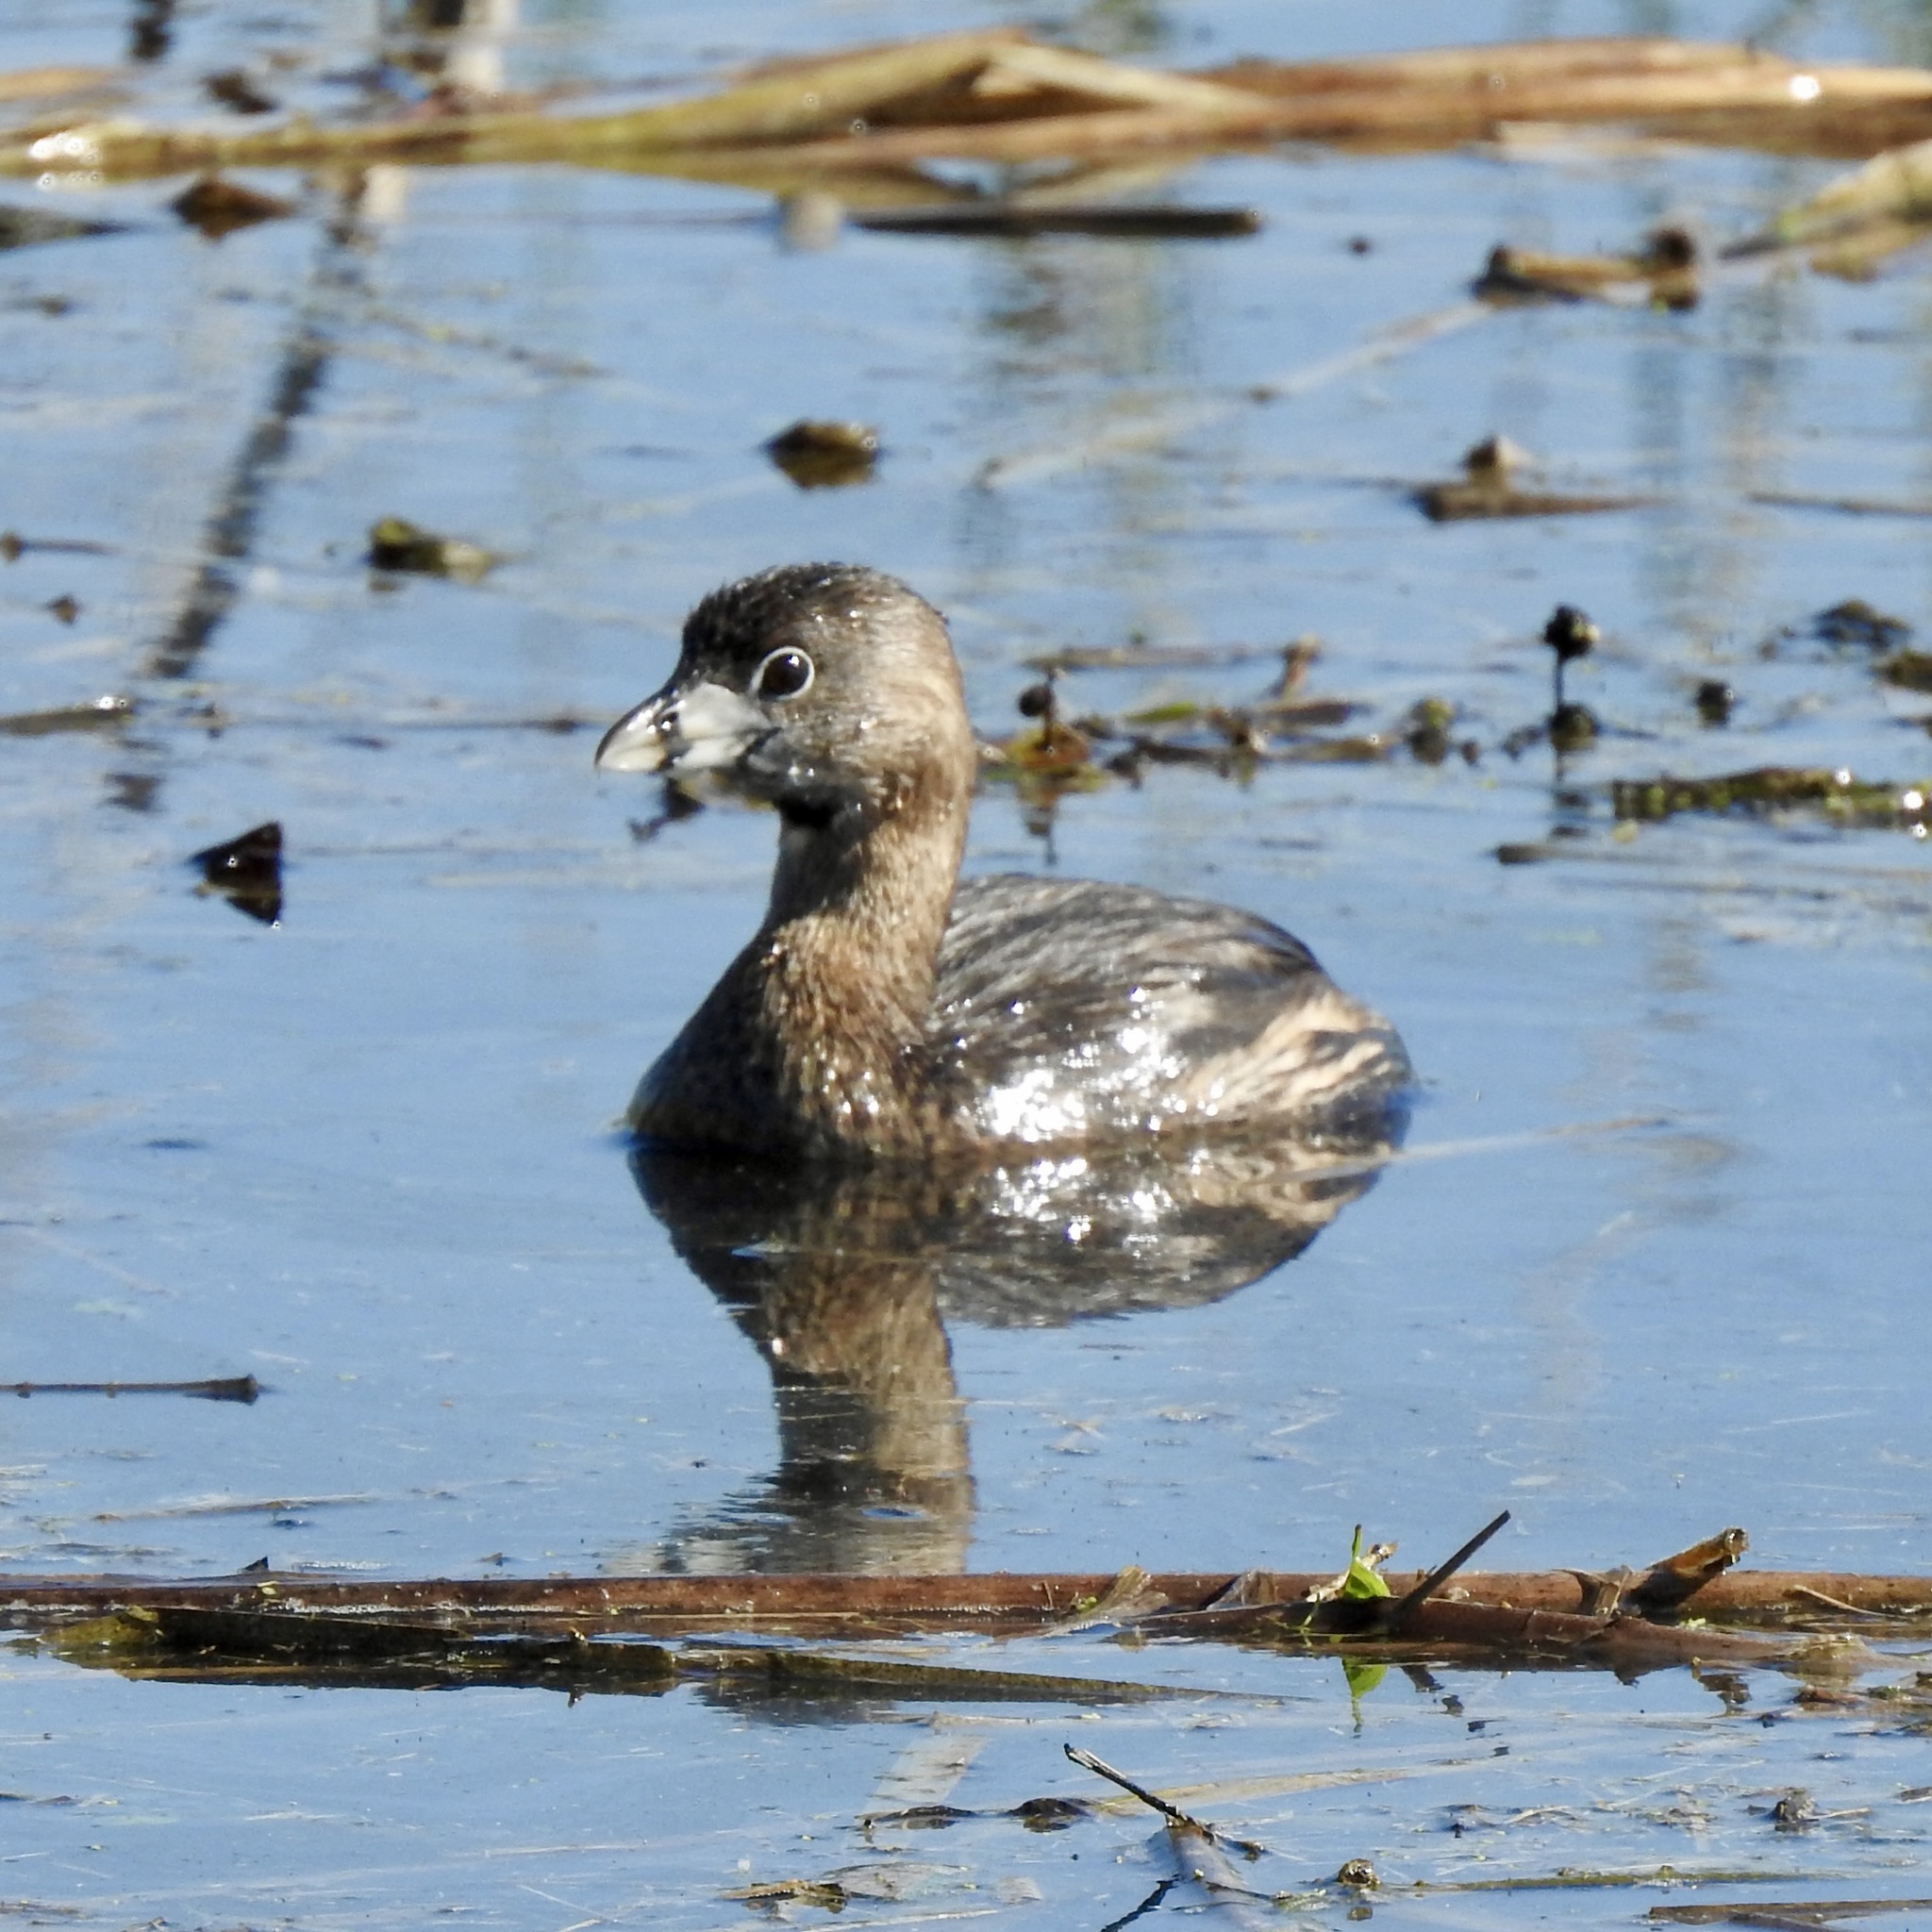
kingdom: Animalia
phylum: Chordata
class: Aves
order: Podicipediformes
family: Podicipedidae
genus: Podilymbus
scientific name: Podilymbus podiceps
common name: Pied-billed grebe
